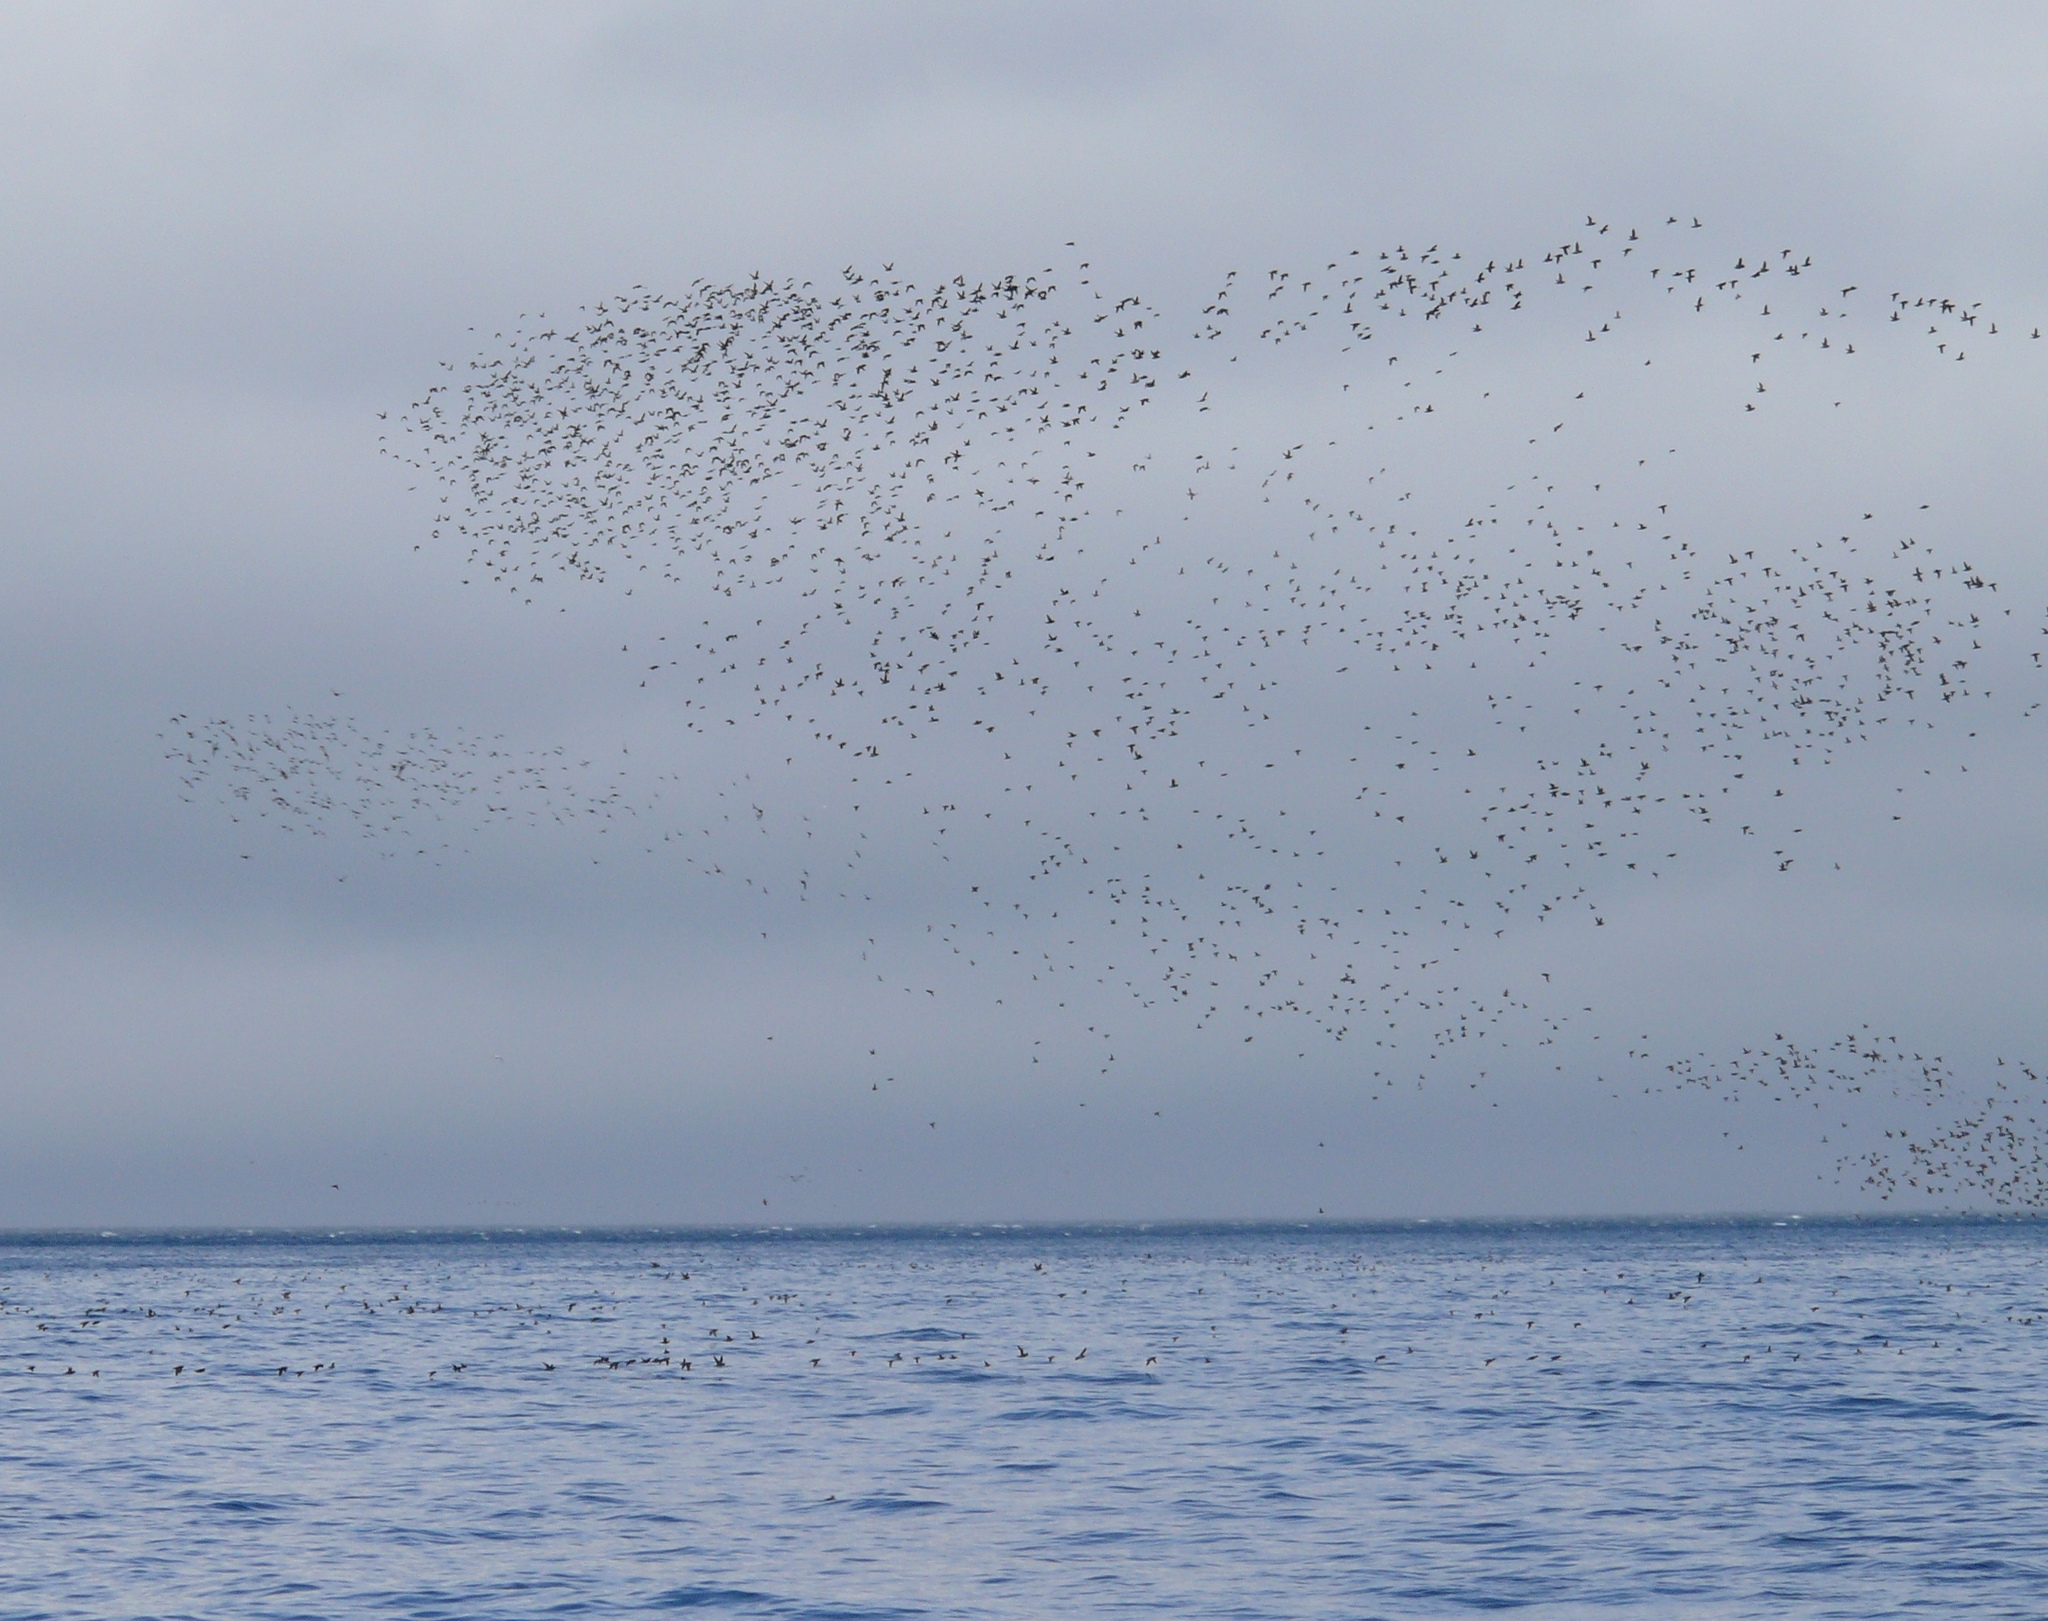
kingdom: Animalia
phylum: Chordata
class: Aves
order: Charadriiformes
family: Alcidae
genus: Aethia
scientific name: Aethia psittacula
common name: Parakeet auklet
